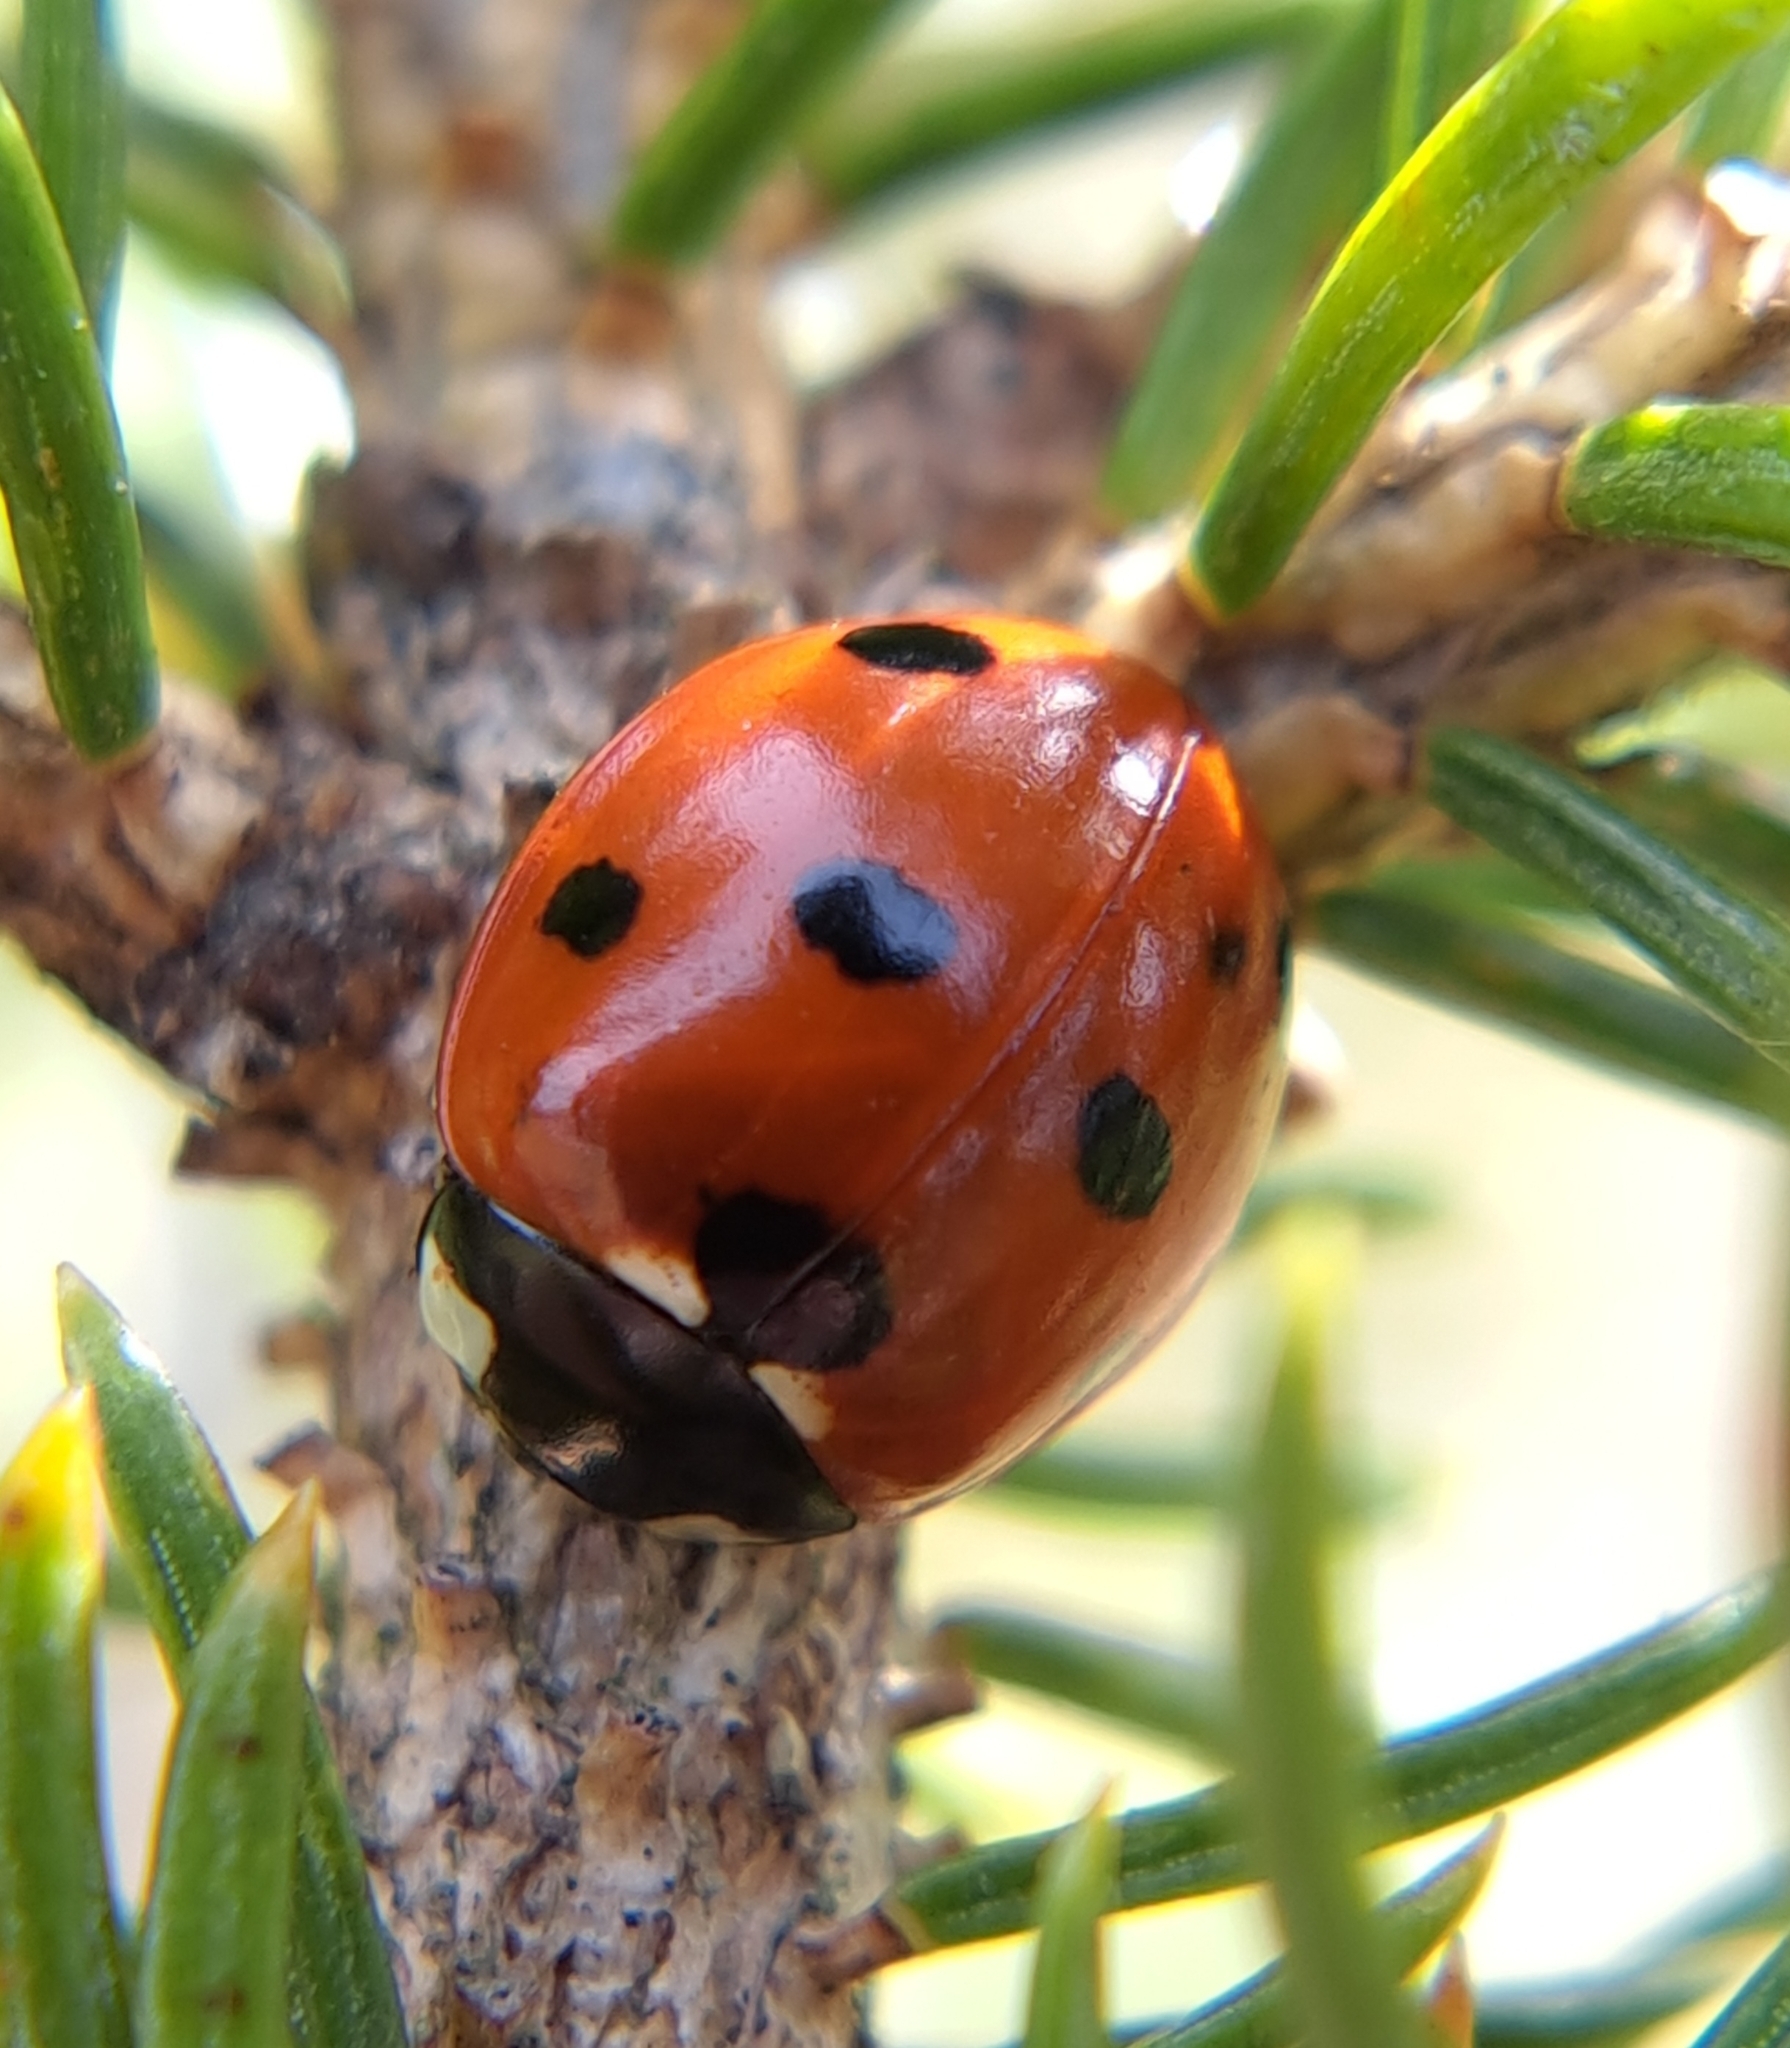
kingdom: Animalia
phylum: Arthropoda
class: Insecta
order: Coleoptera
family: Coccinellidae
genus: Coccinella
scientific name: Coccinella septempunctata
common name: Sevenspotted lady beetle
